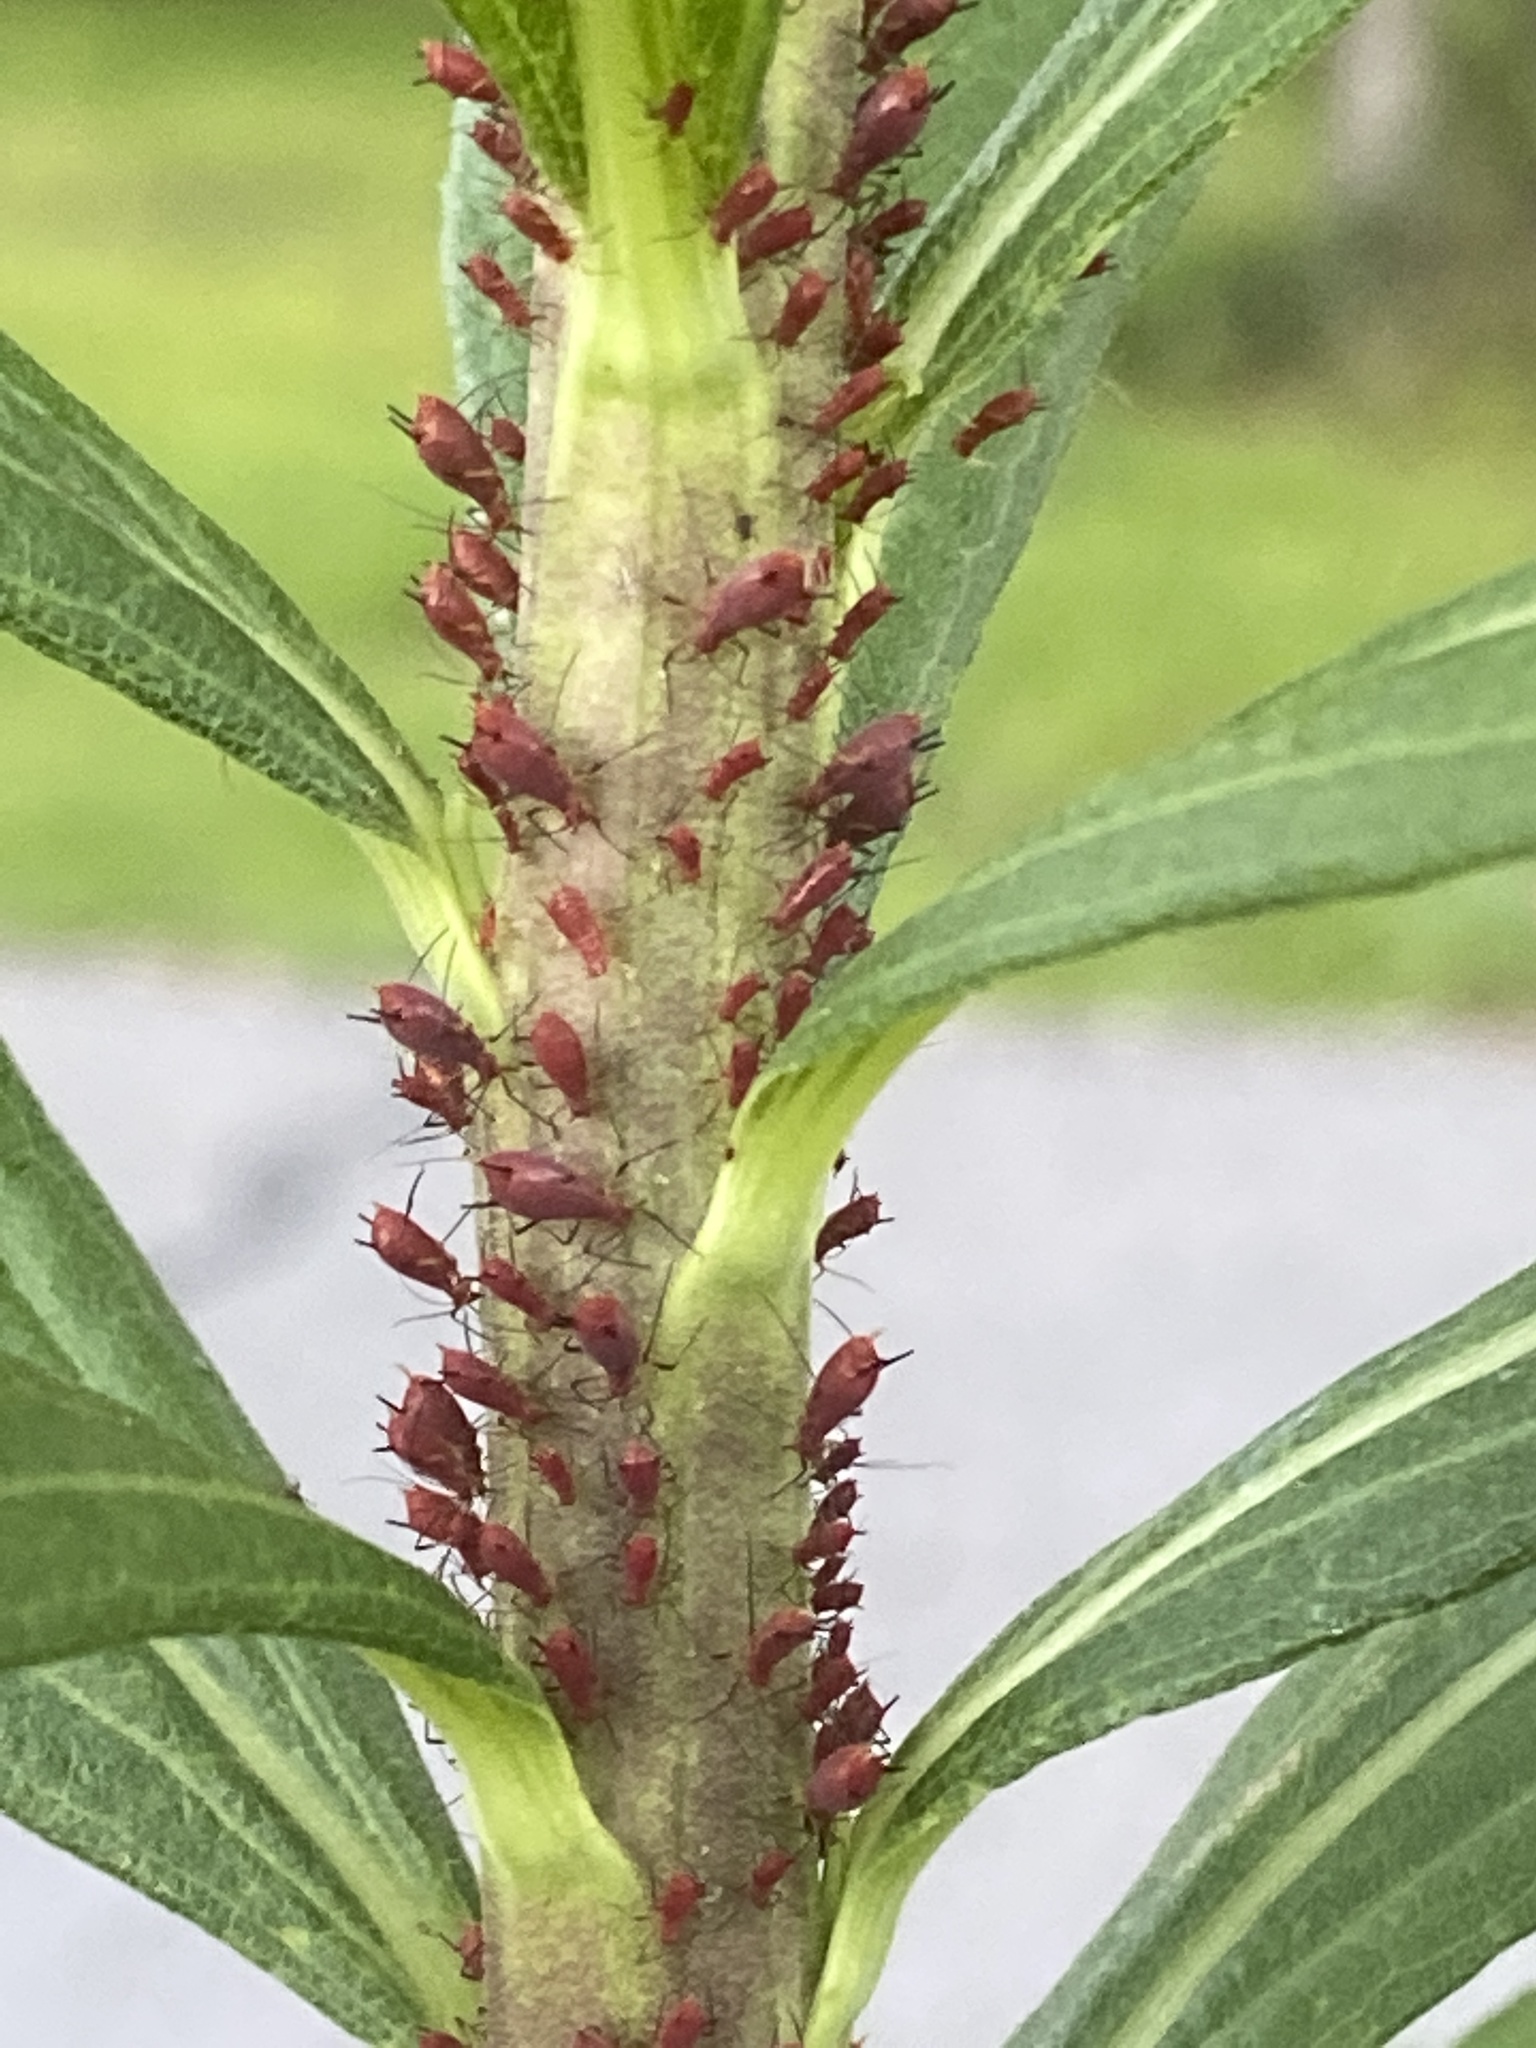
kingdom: Animalia
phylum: Arthropoda
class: Insecta
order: Hemiptera
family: Aphididae
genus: Uroleucon
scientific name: Uroleucon
